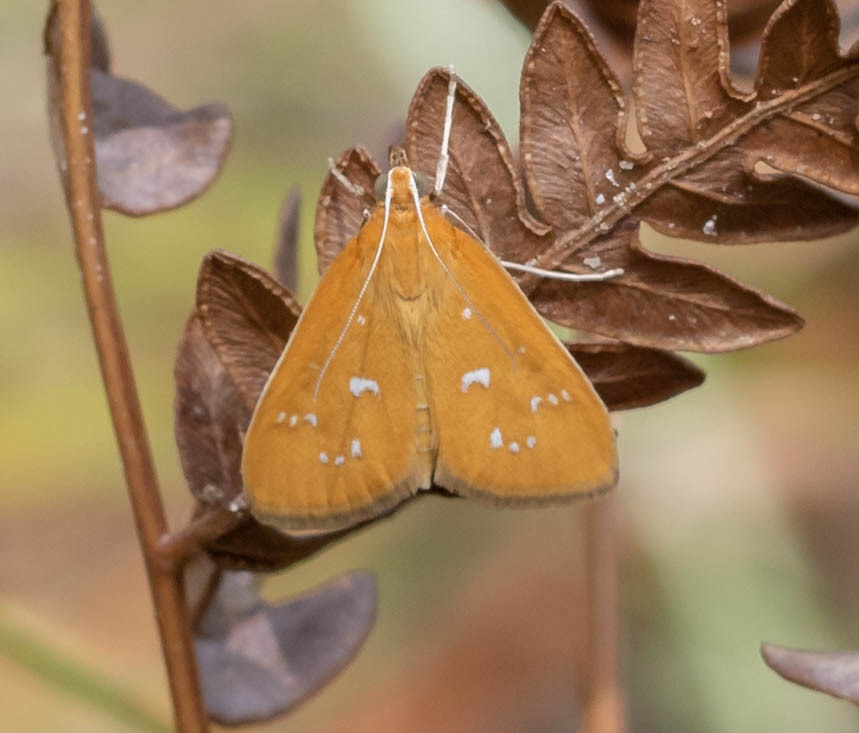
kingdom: Animalia
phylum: Arthropoda
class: Insecta
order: Lepidoptera
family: Crambidae
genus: Diastictis
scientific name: Diastictis argyralis
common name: White-spotted orange
